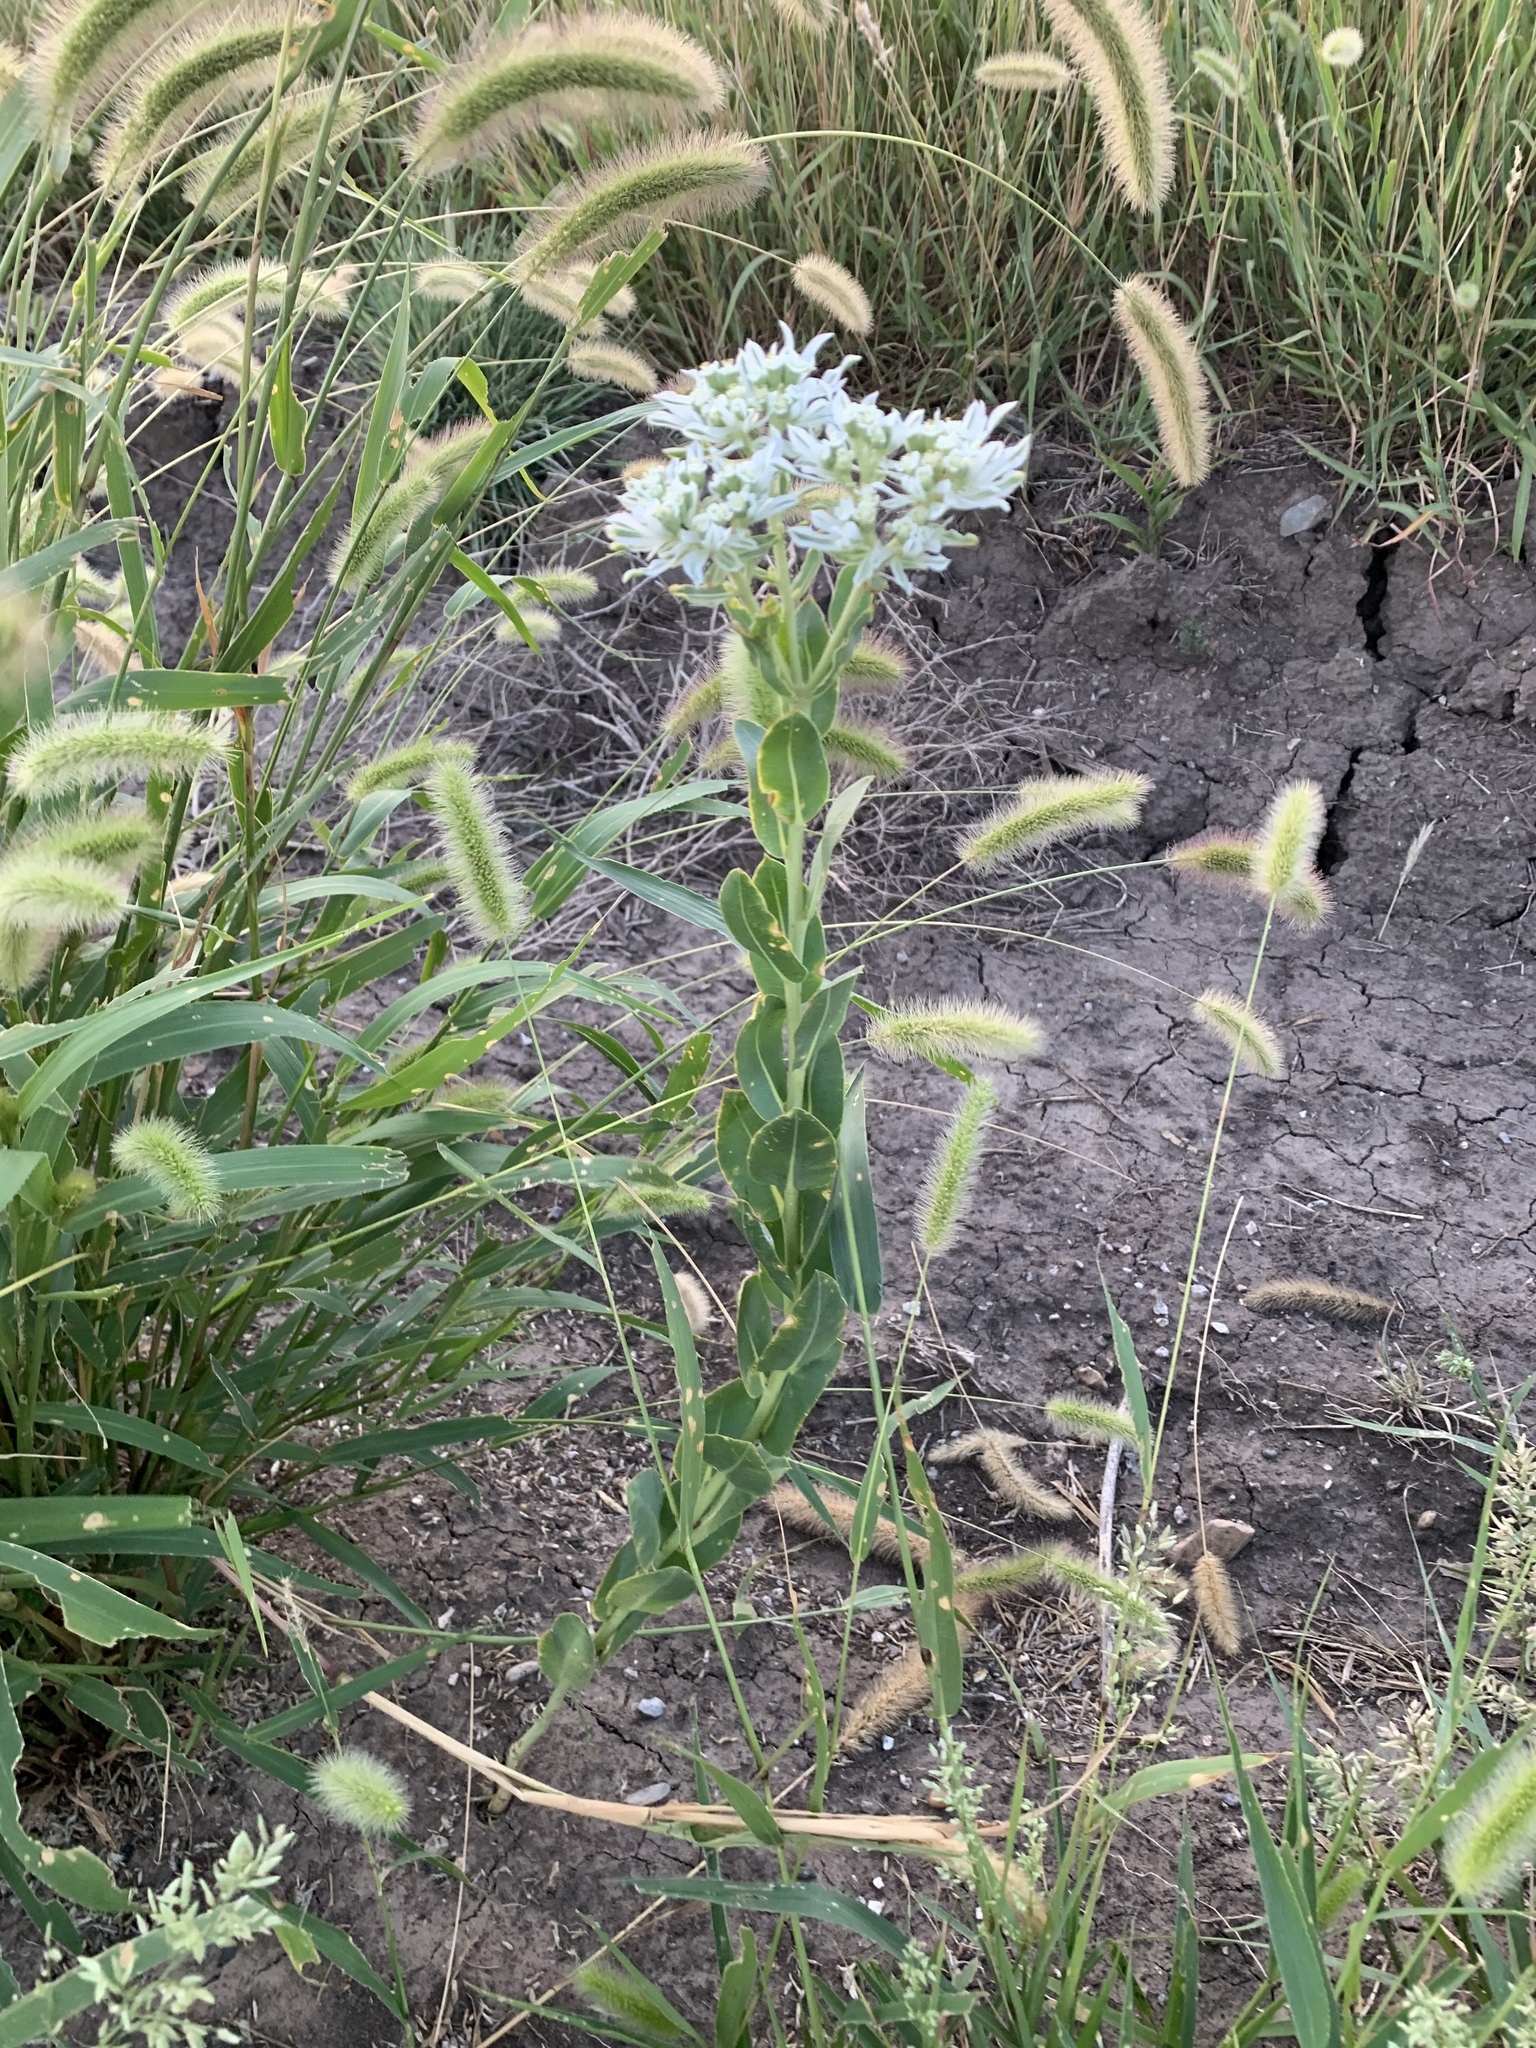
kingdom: Plantae
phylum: Tracheophyta
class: Magnoliopsida
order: Malpighiales
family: Euphorbiaceae
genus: Euphorbia
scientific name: Euphorbia marginata
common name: Ghostweed
